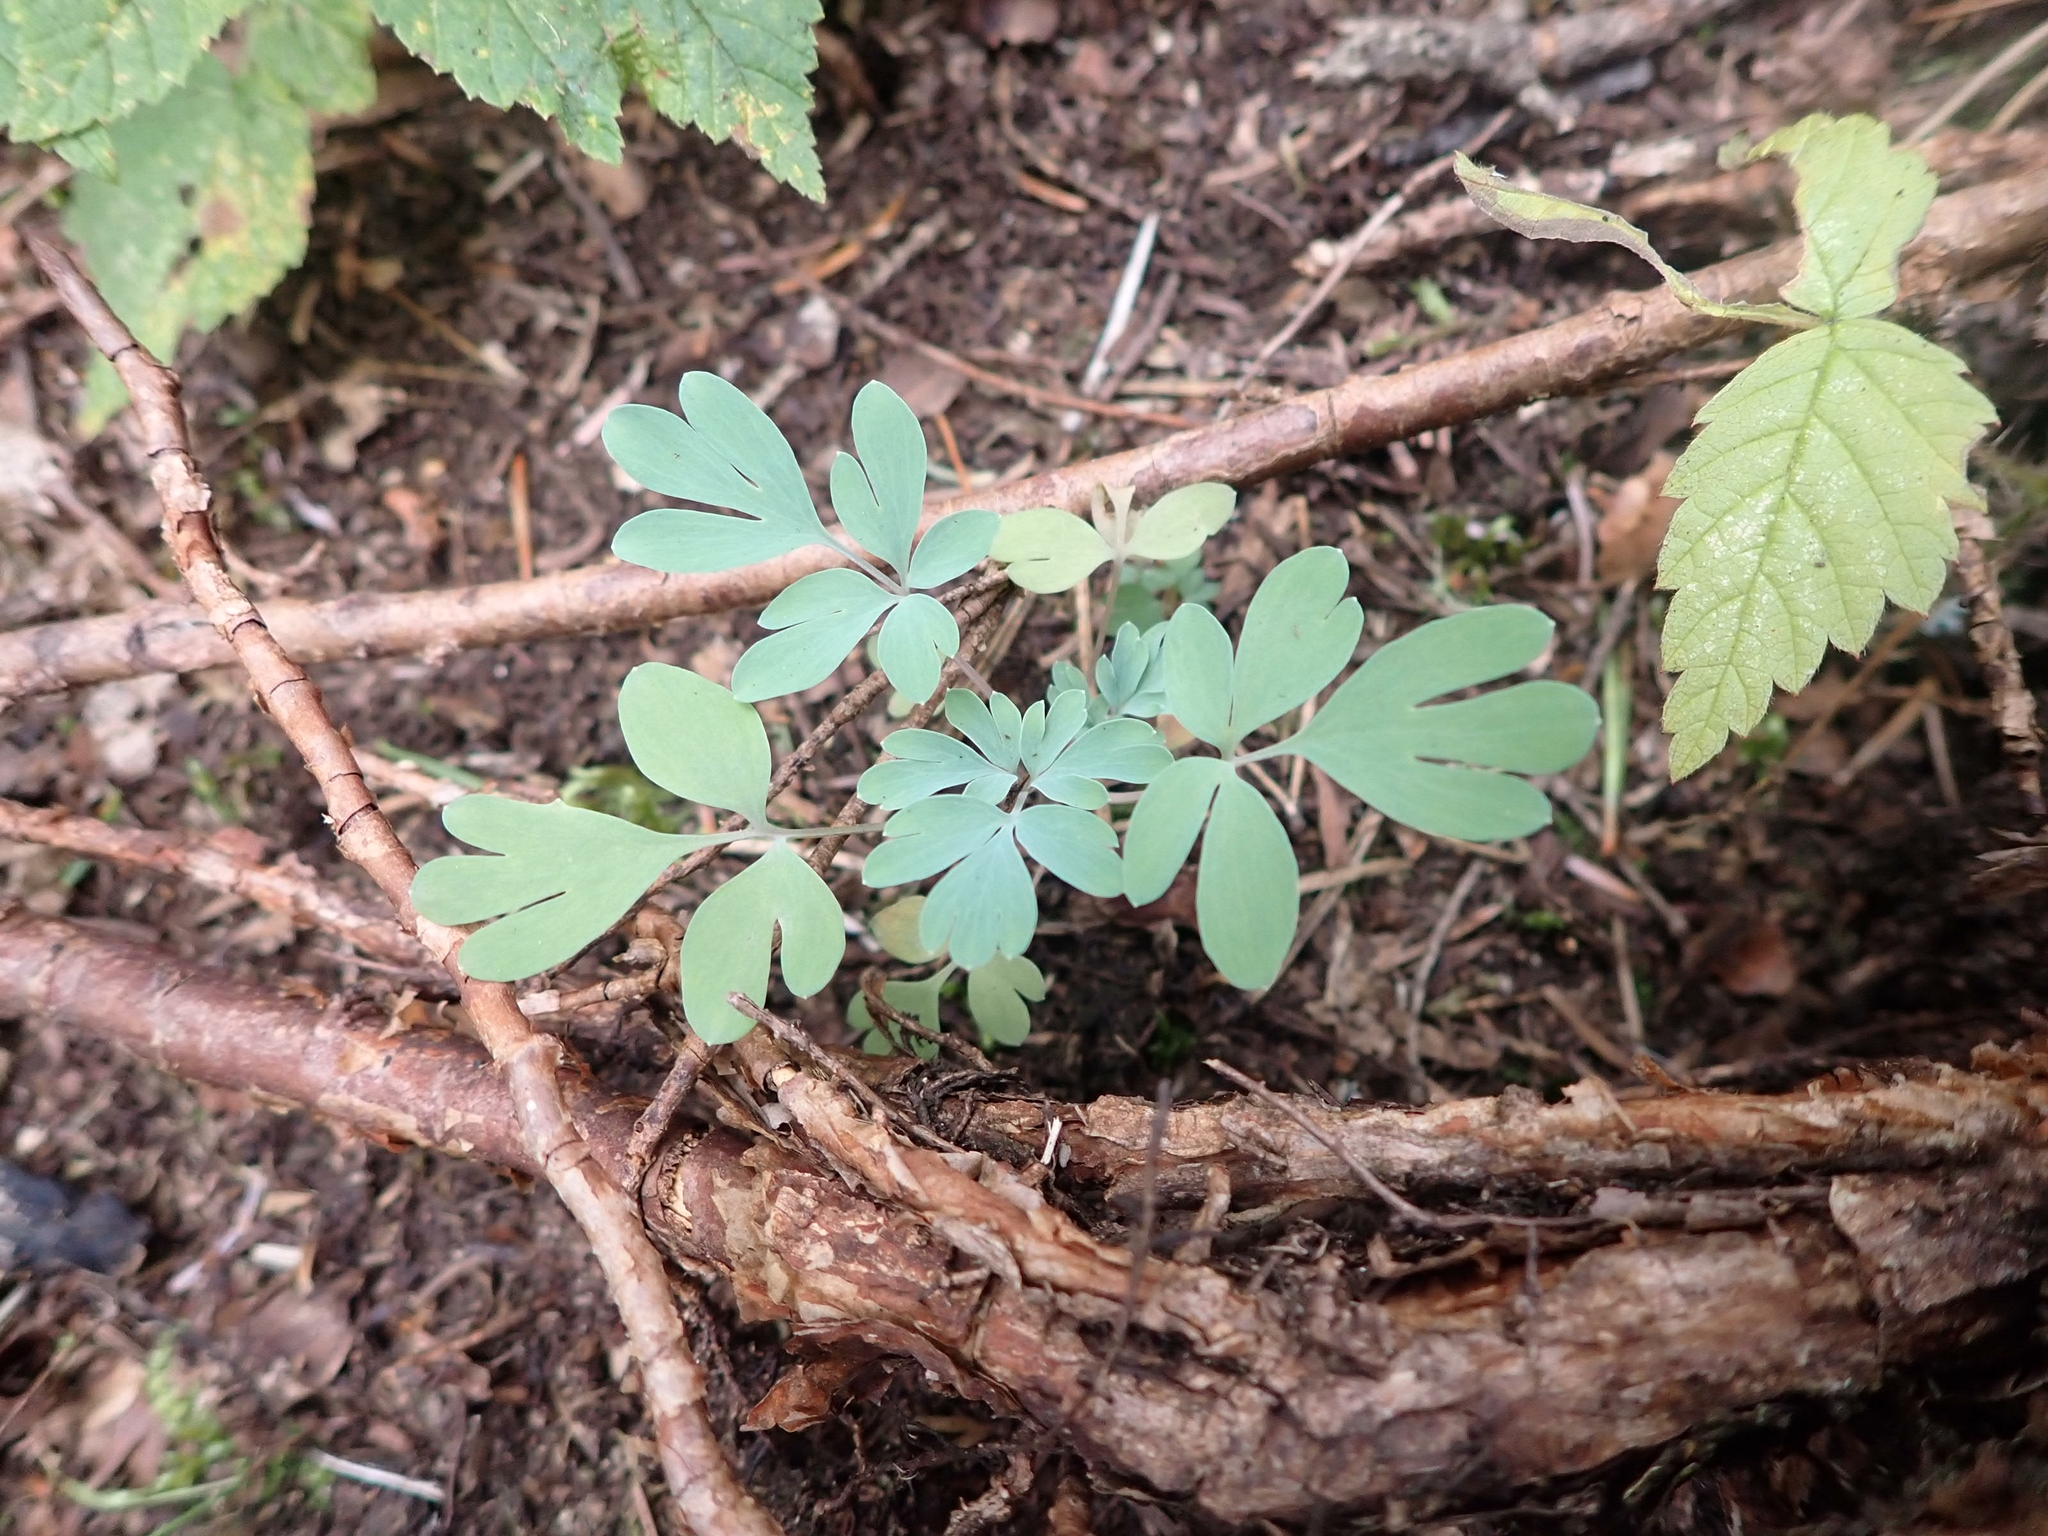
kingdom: Plantae
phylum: Tracheophyta
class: Magnoliopsida
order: Ranunculales
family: Papaveraceae
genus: Capnoides
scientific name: Capnoides sempervirens
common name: Rock harlequin
